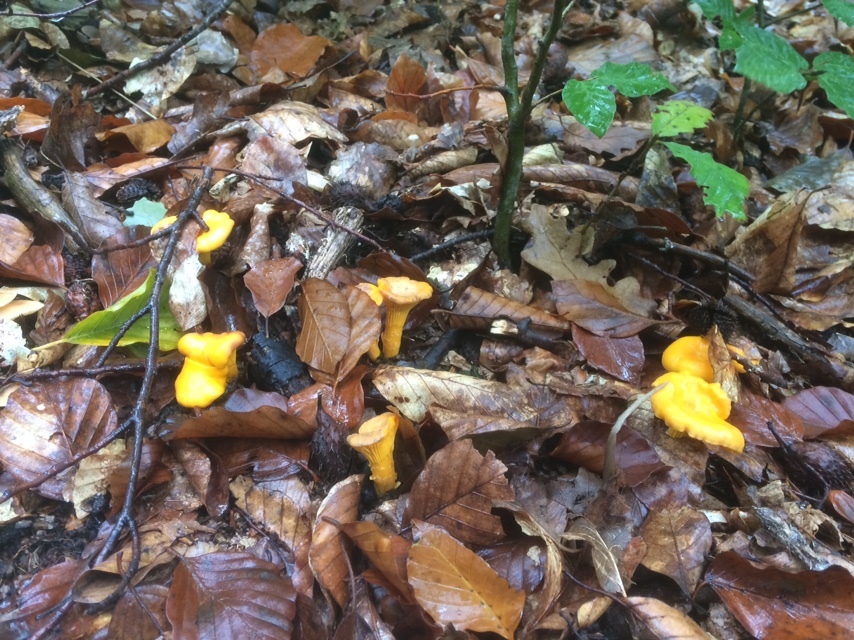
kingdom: Fungi
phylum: Basidiomycota
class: Agaricomycetes
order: Cantharellales
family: Hydnaceae
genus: Cantharellus
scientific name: Cantharellus cibarius
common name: Chanterelle
